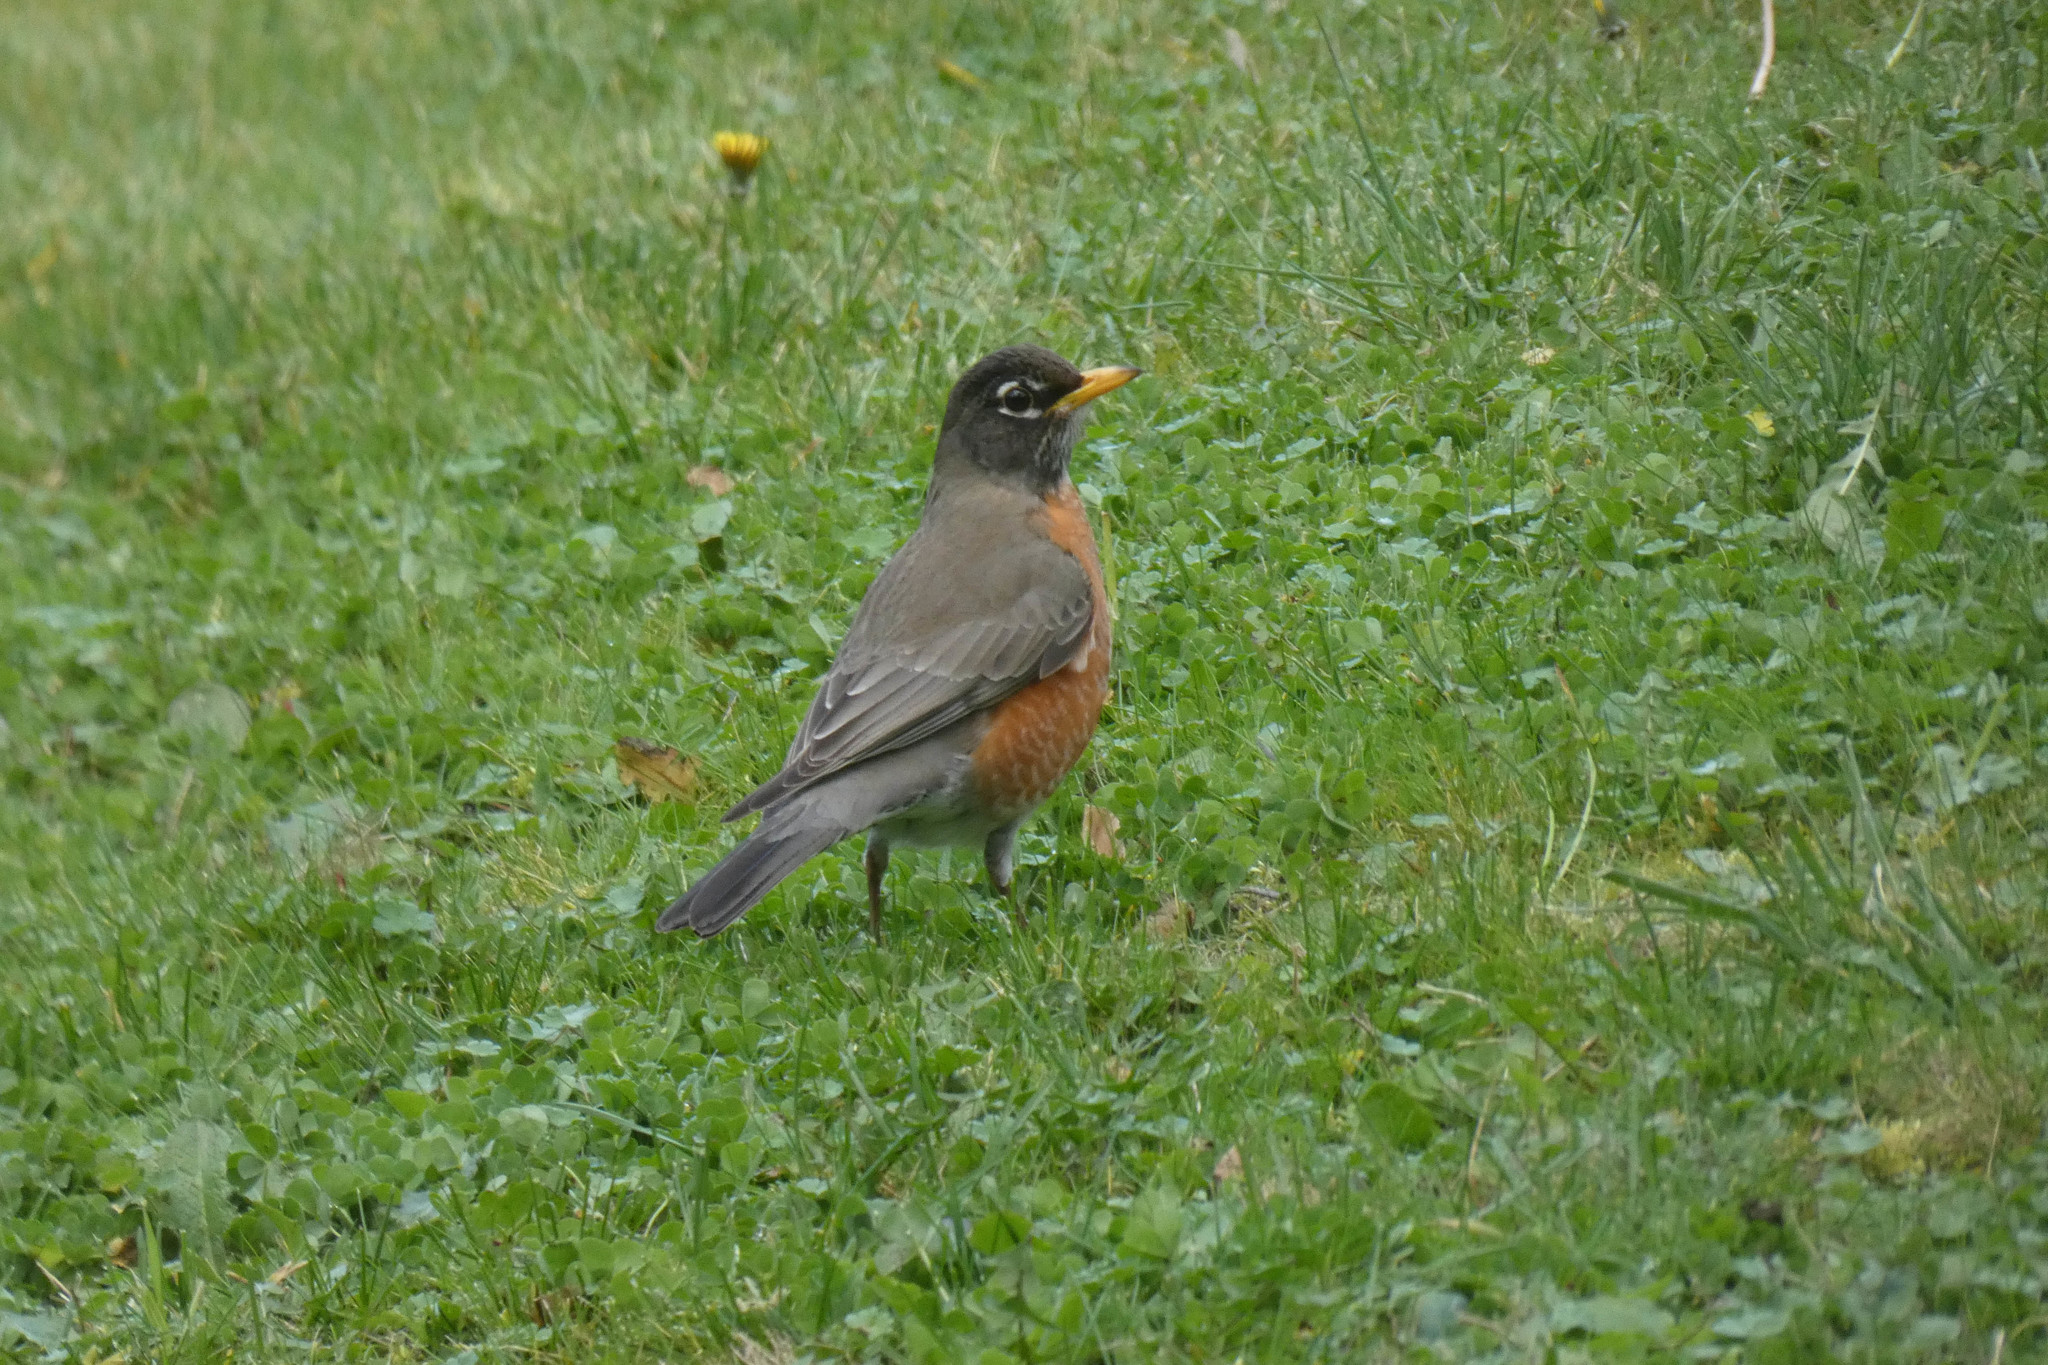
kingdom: Animalia
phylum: Chordata
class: Aves
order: Passeriformes
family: Turdidae
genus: Turdus
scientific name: Turdus migratorius
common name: American robin
